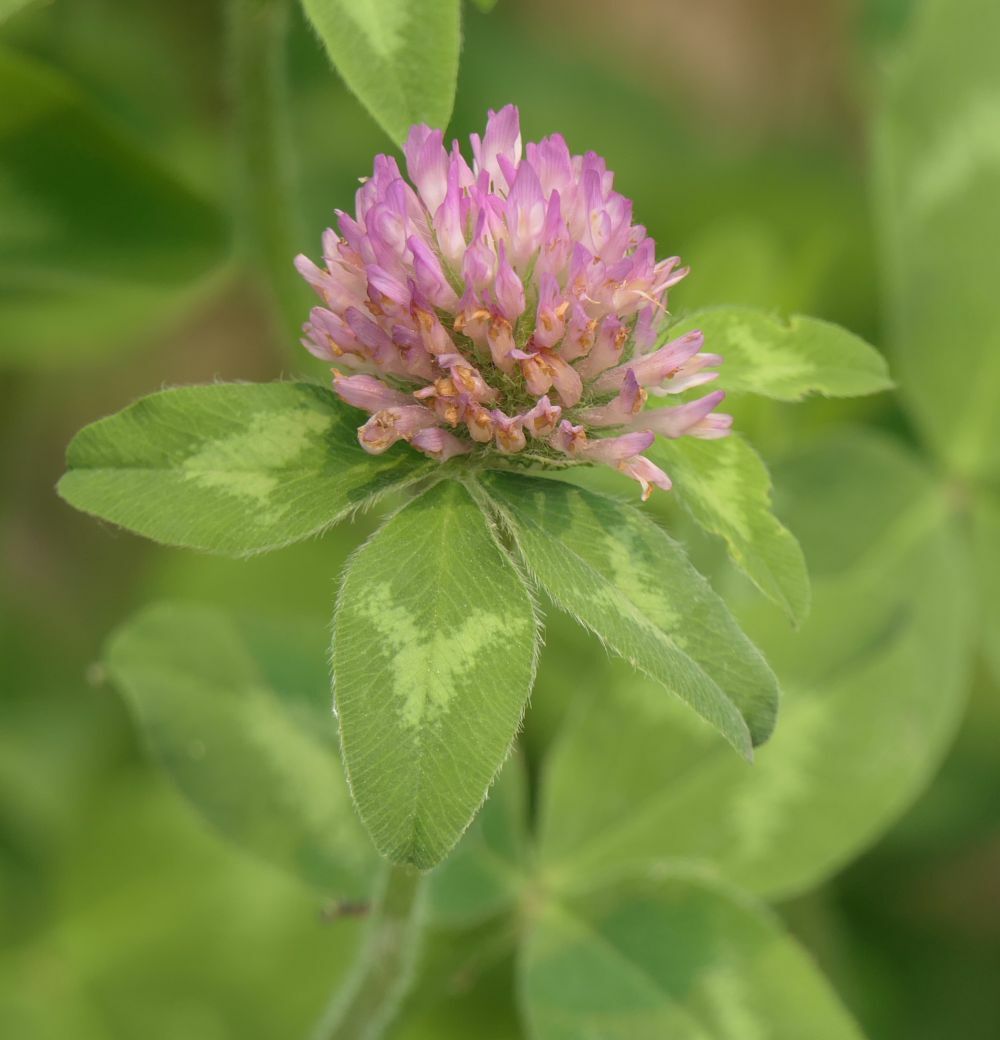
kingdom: Plantae
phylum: Tracheophyta
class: Magnoliopsida
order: Fabales
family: Fabaceae
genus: Trifolium
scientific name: Trifolium pratense
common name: Red clover
